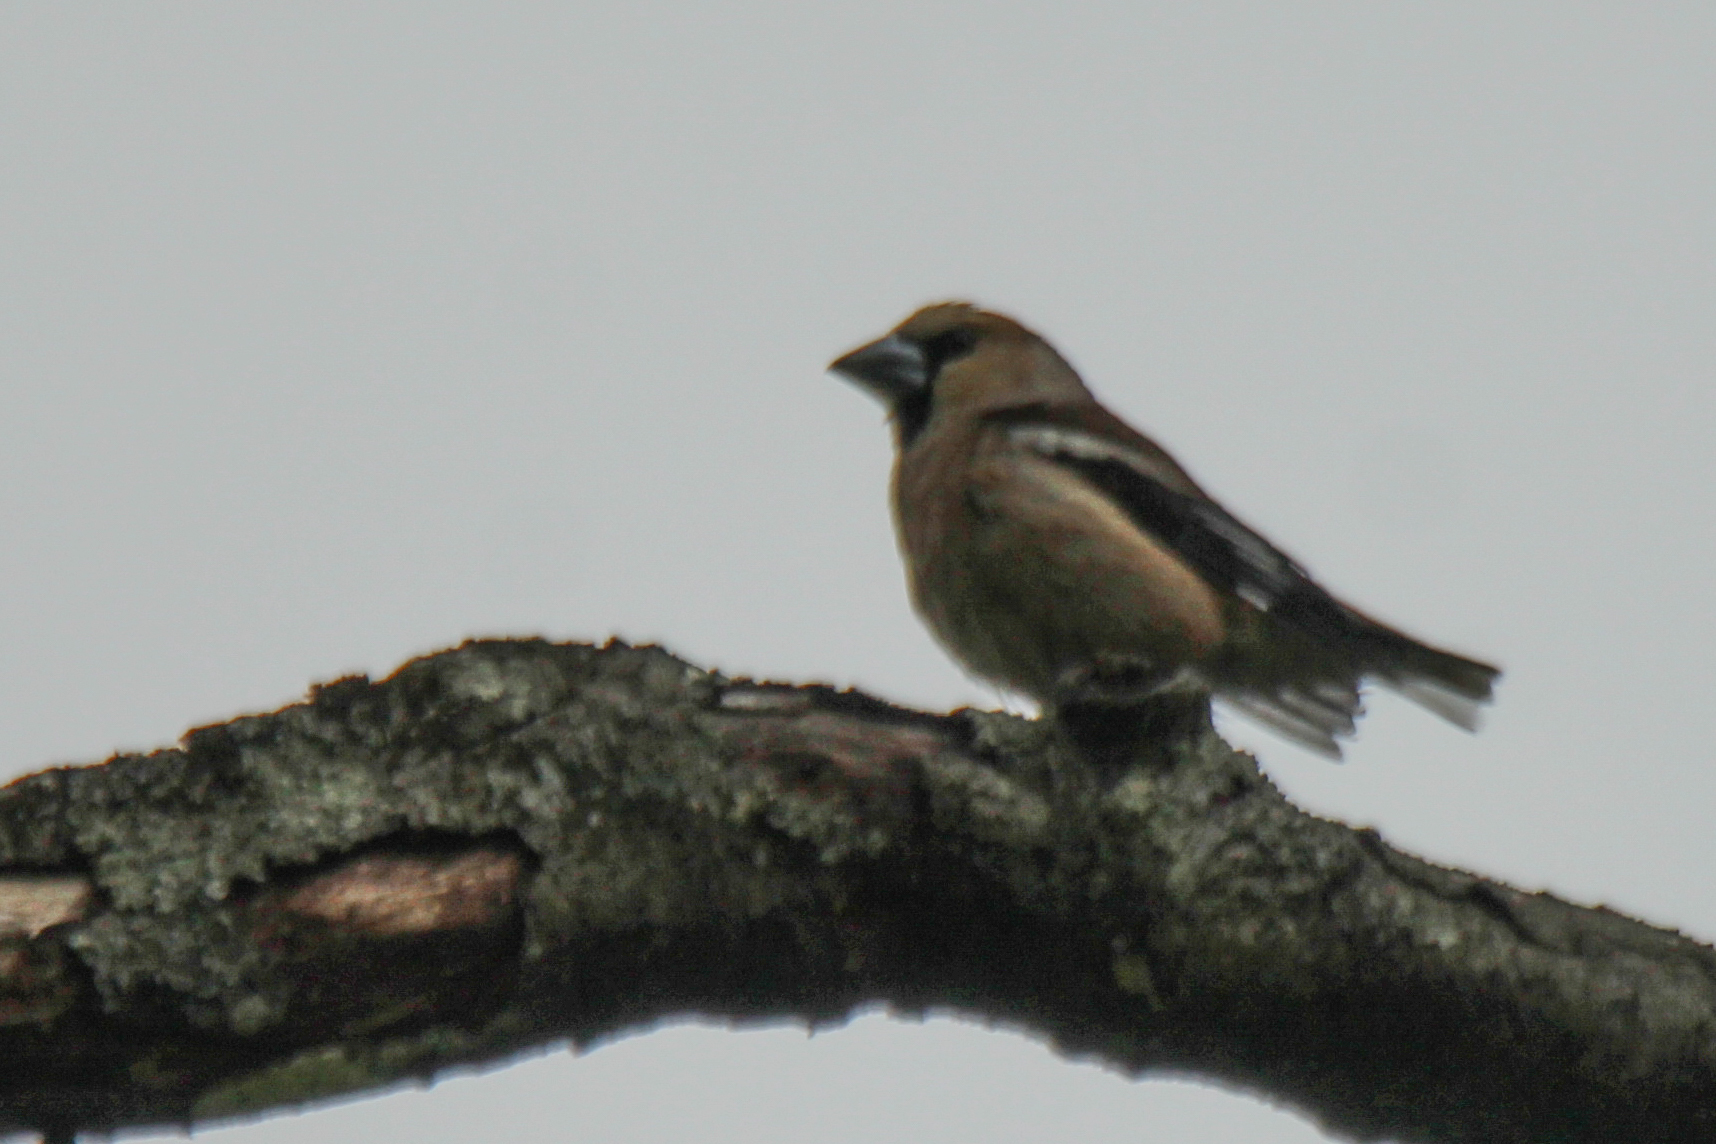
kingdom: Animalia
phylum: Chordata
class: Aves
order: Passeriformes
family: Fringillidae
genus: Coccothraustes
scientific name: Coccothraustes coccothraustes
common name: Hawfinch
